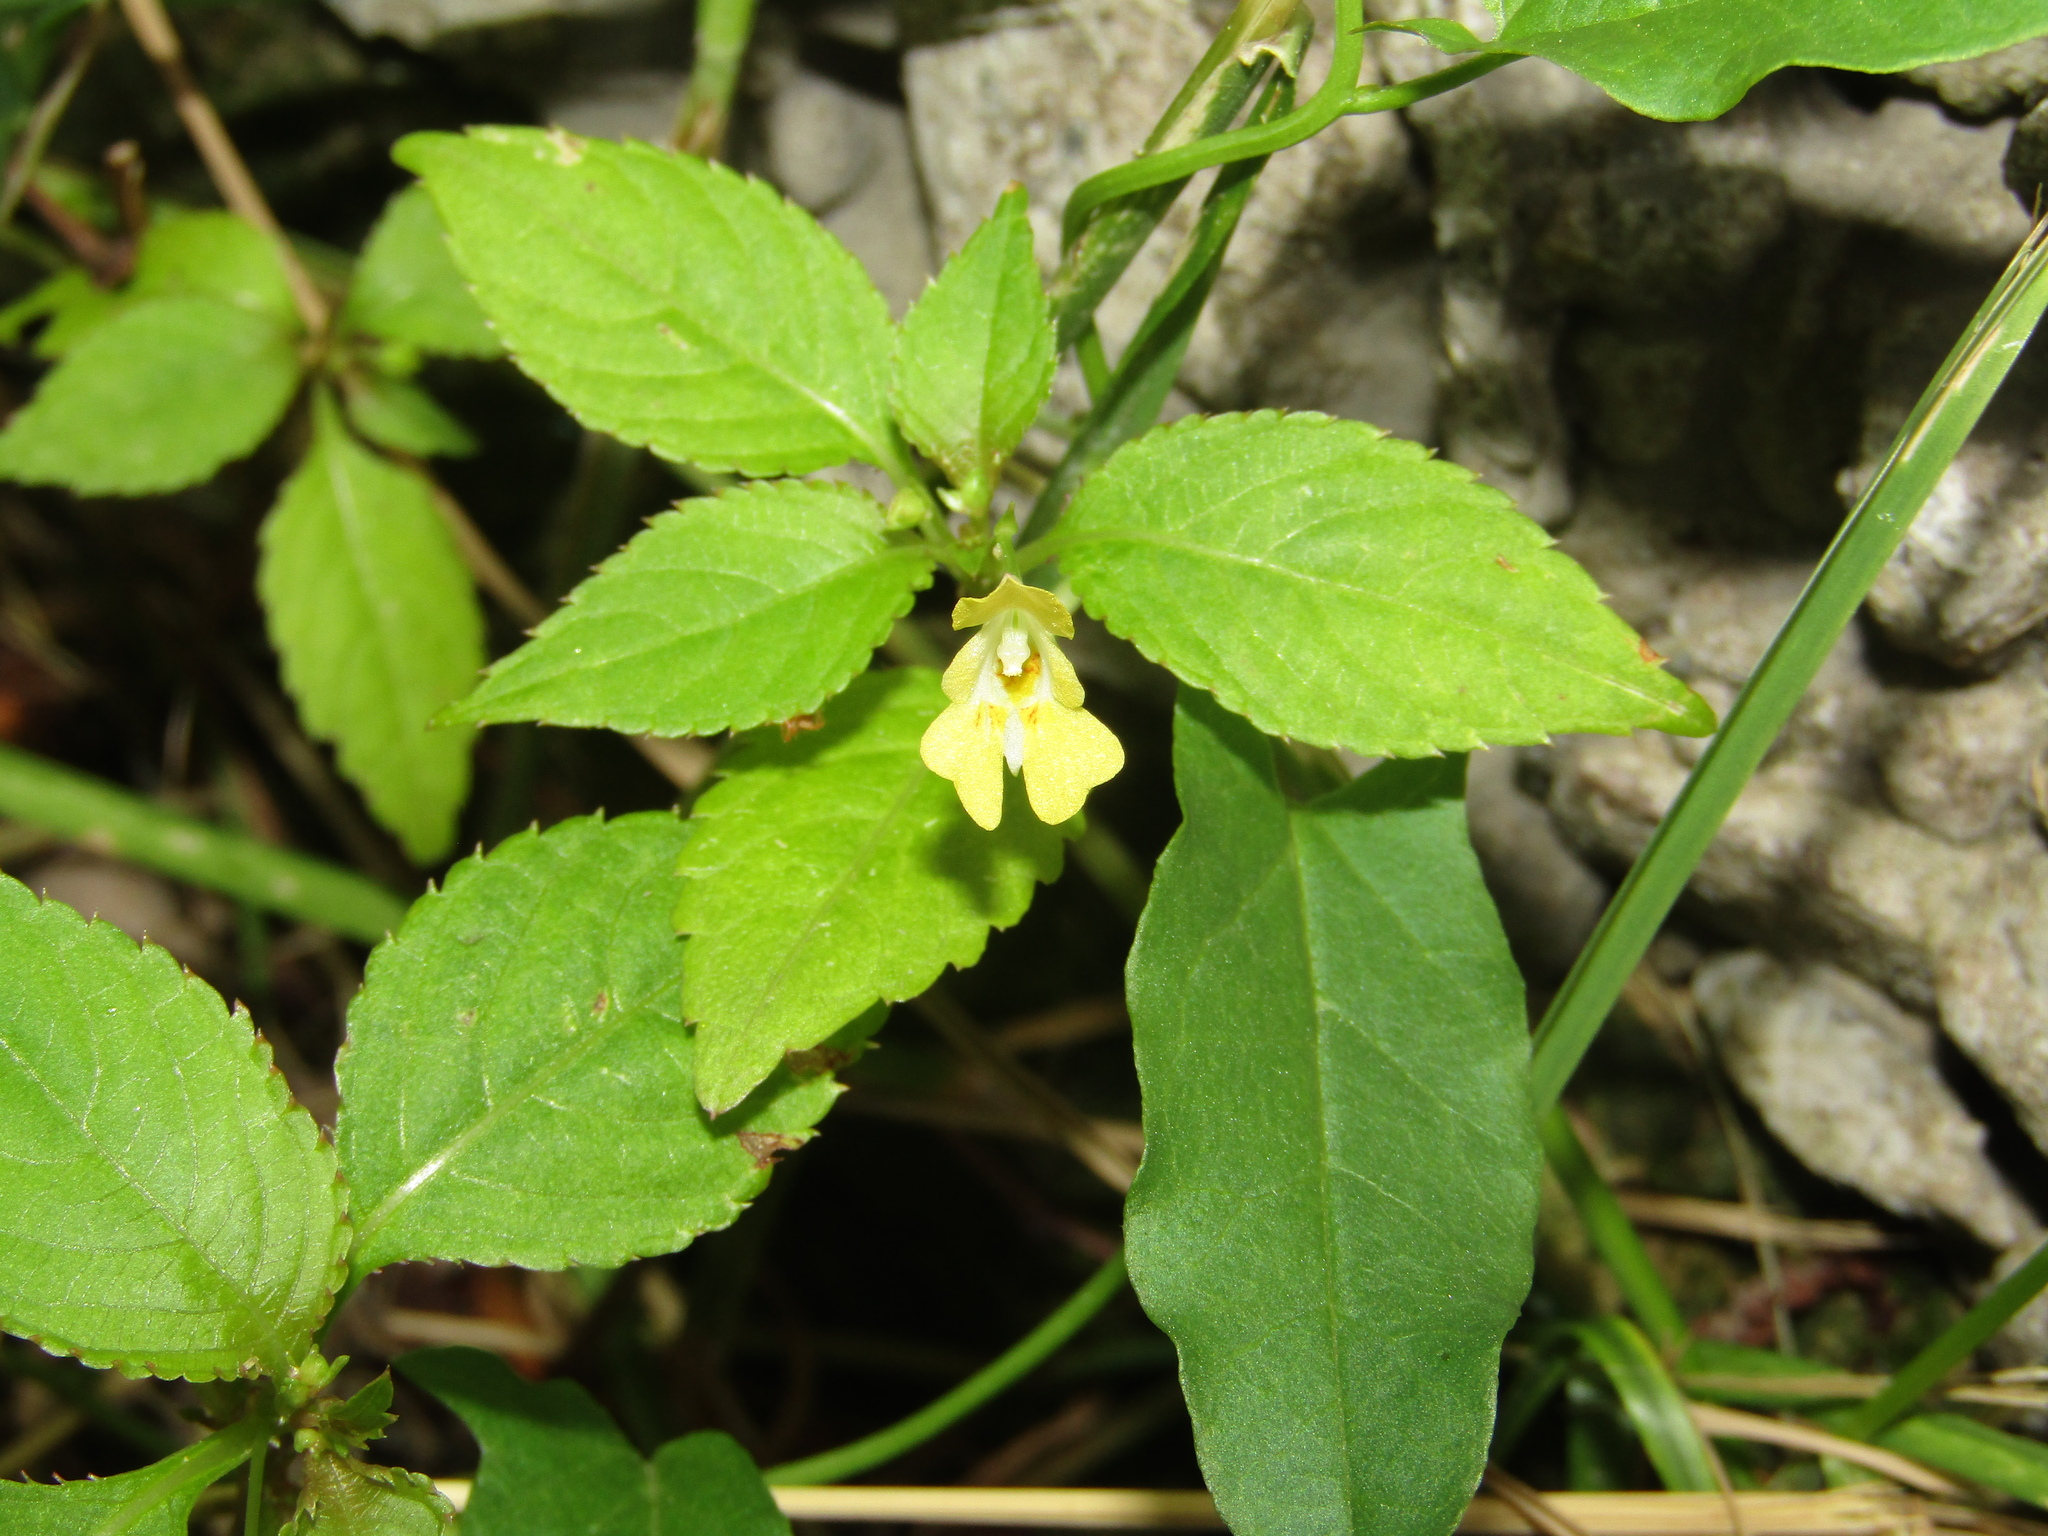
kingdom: Plantae
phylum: Tracheophyta
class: Magnoliopsida
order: Ericales
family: Balsaminaceae
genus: Impatiens
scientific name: Impatiens parviflora
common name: Small balsam
